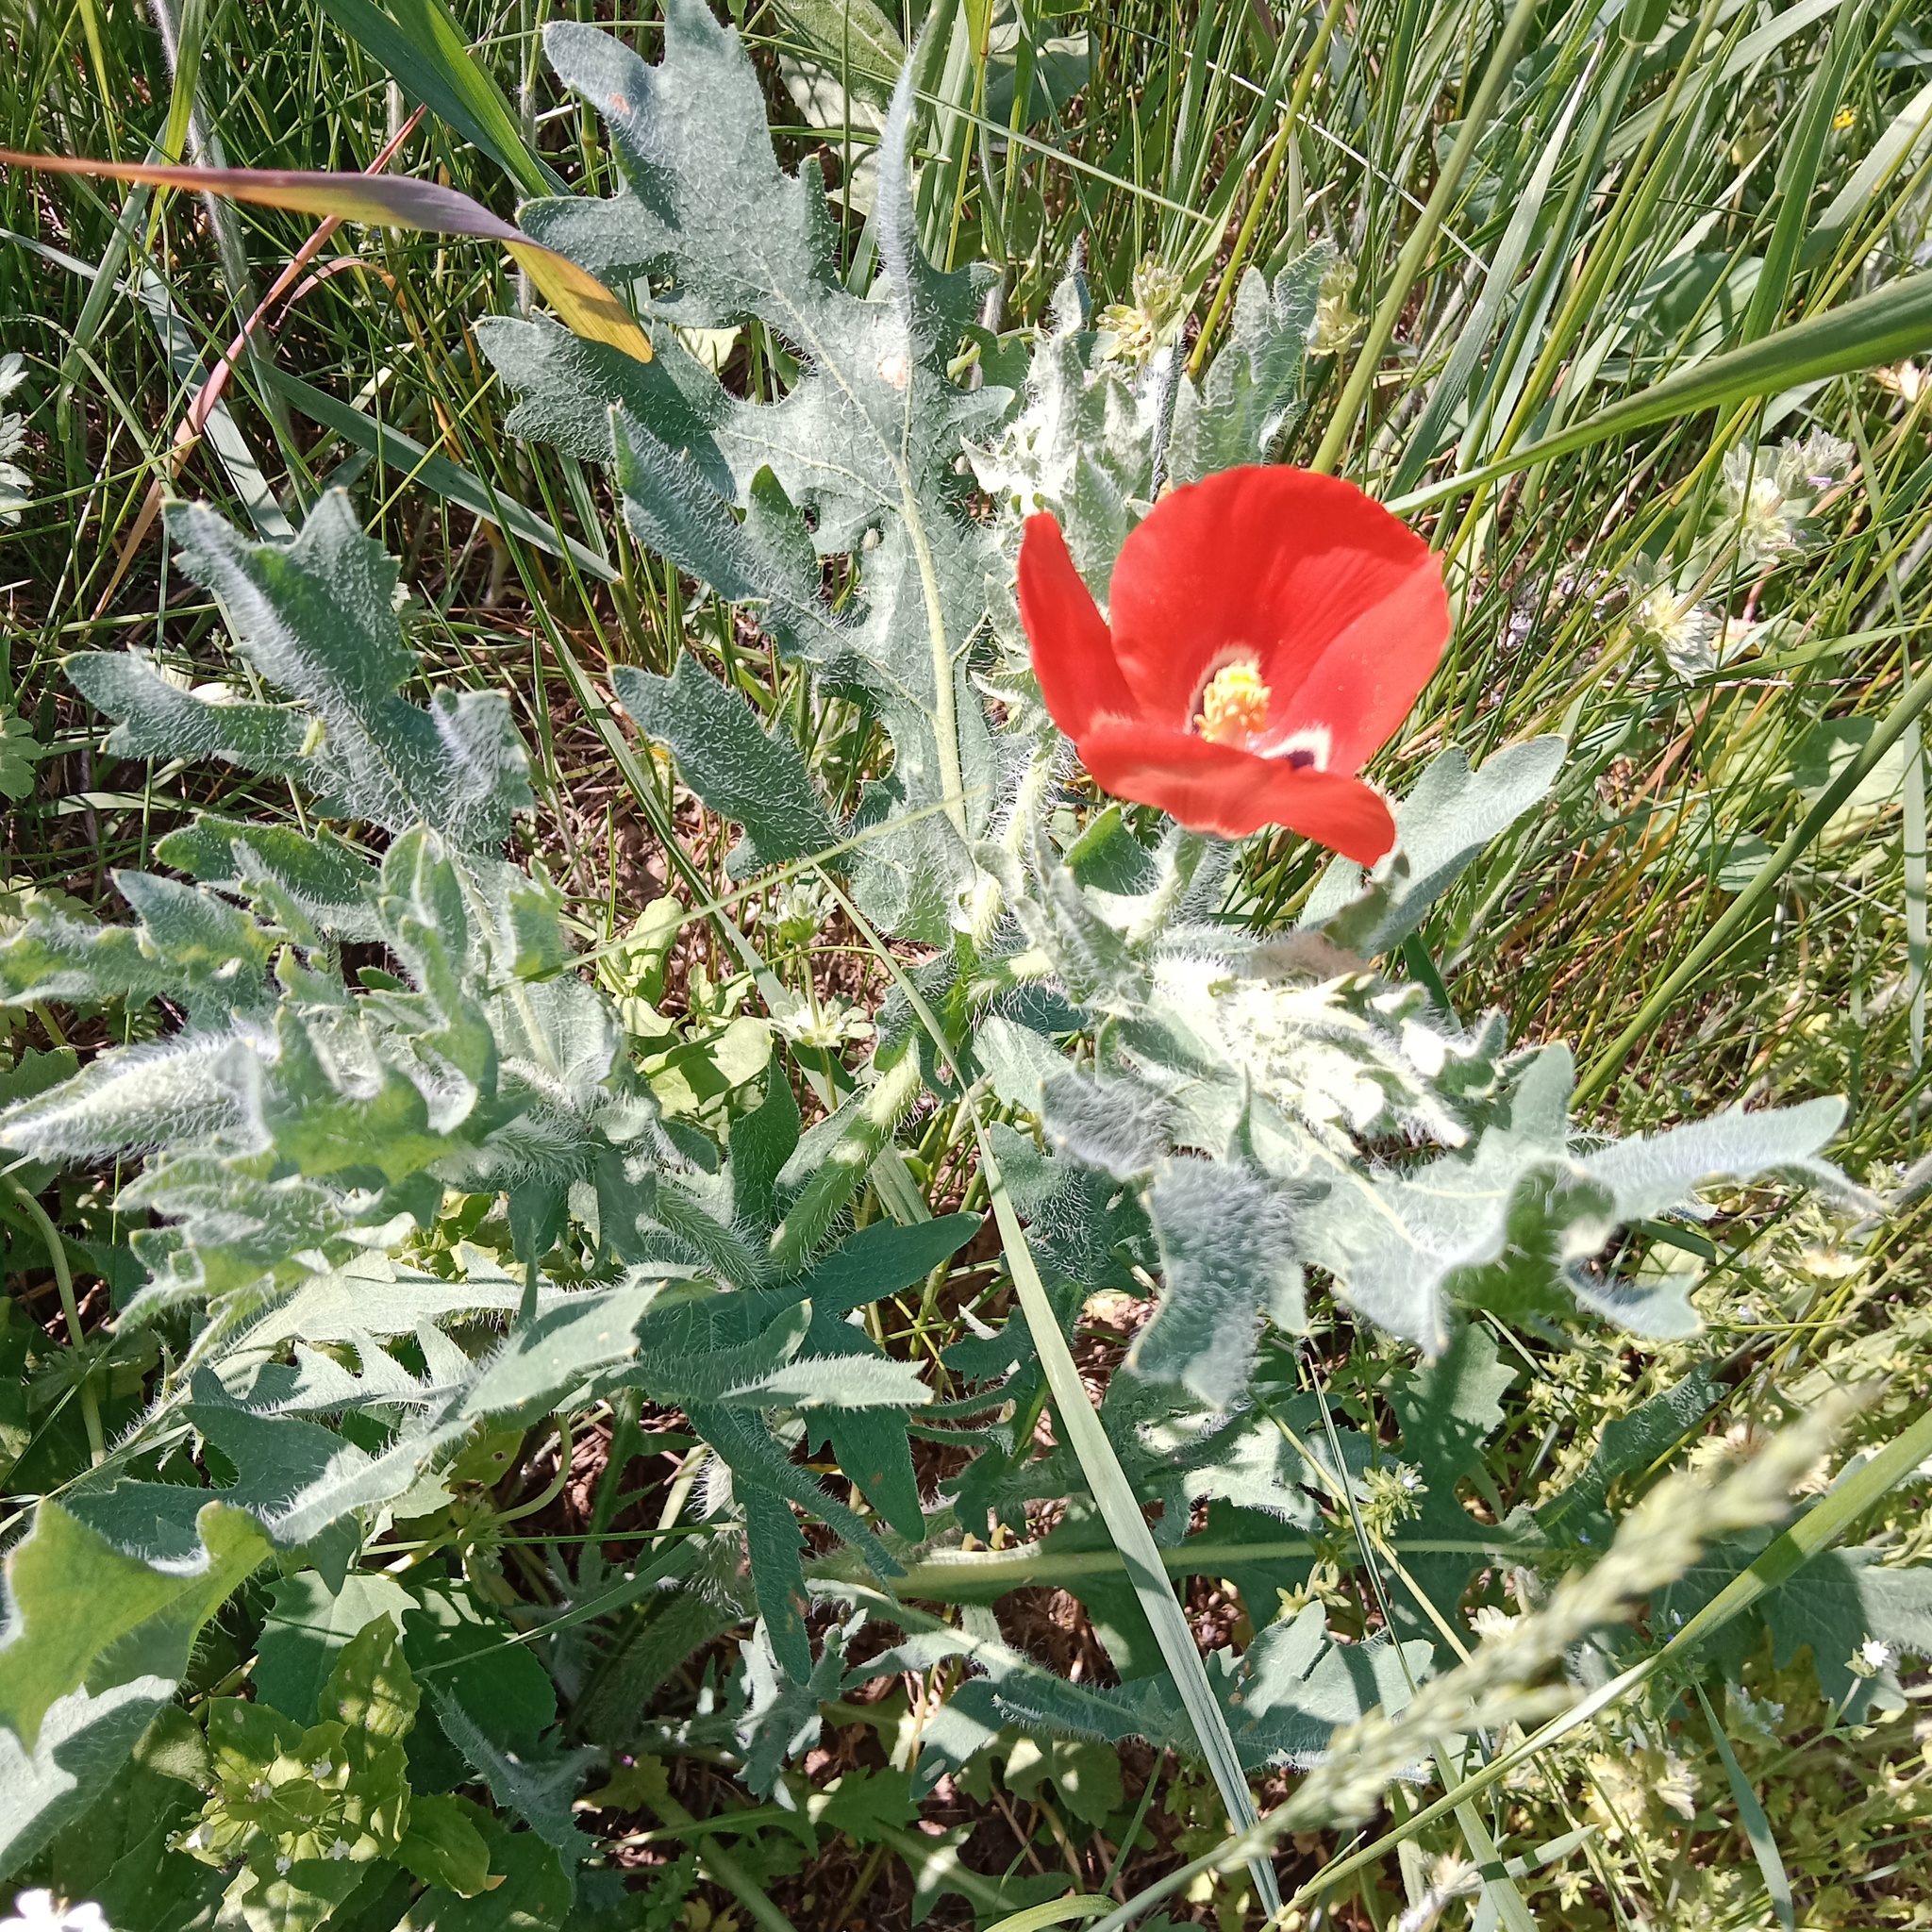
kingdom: Plantae
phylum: Tracheophyta
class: Magnoliopsida
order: Ranunculales
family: Papaveraceae
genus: Glaucium
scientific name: Glaucium corniculatum
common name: Red horned-poppy
